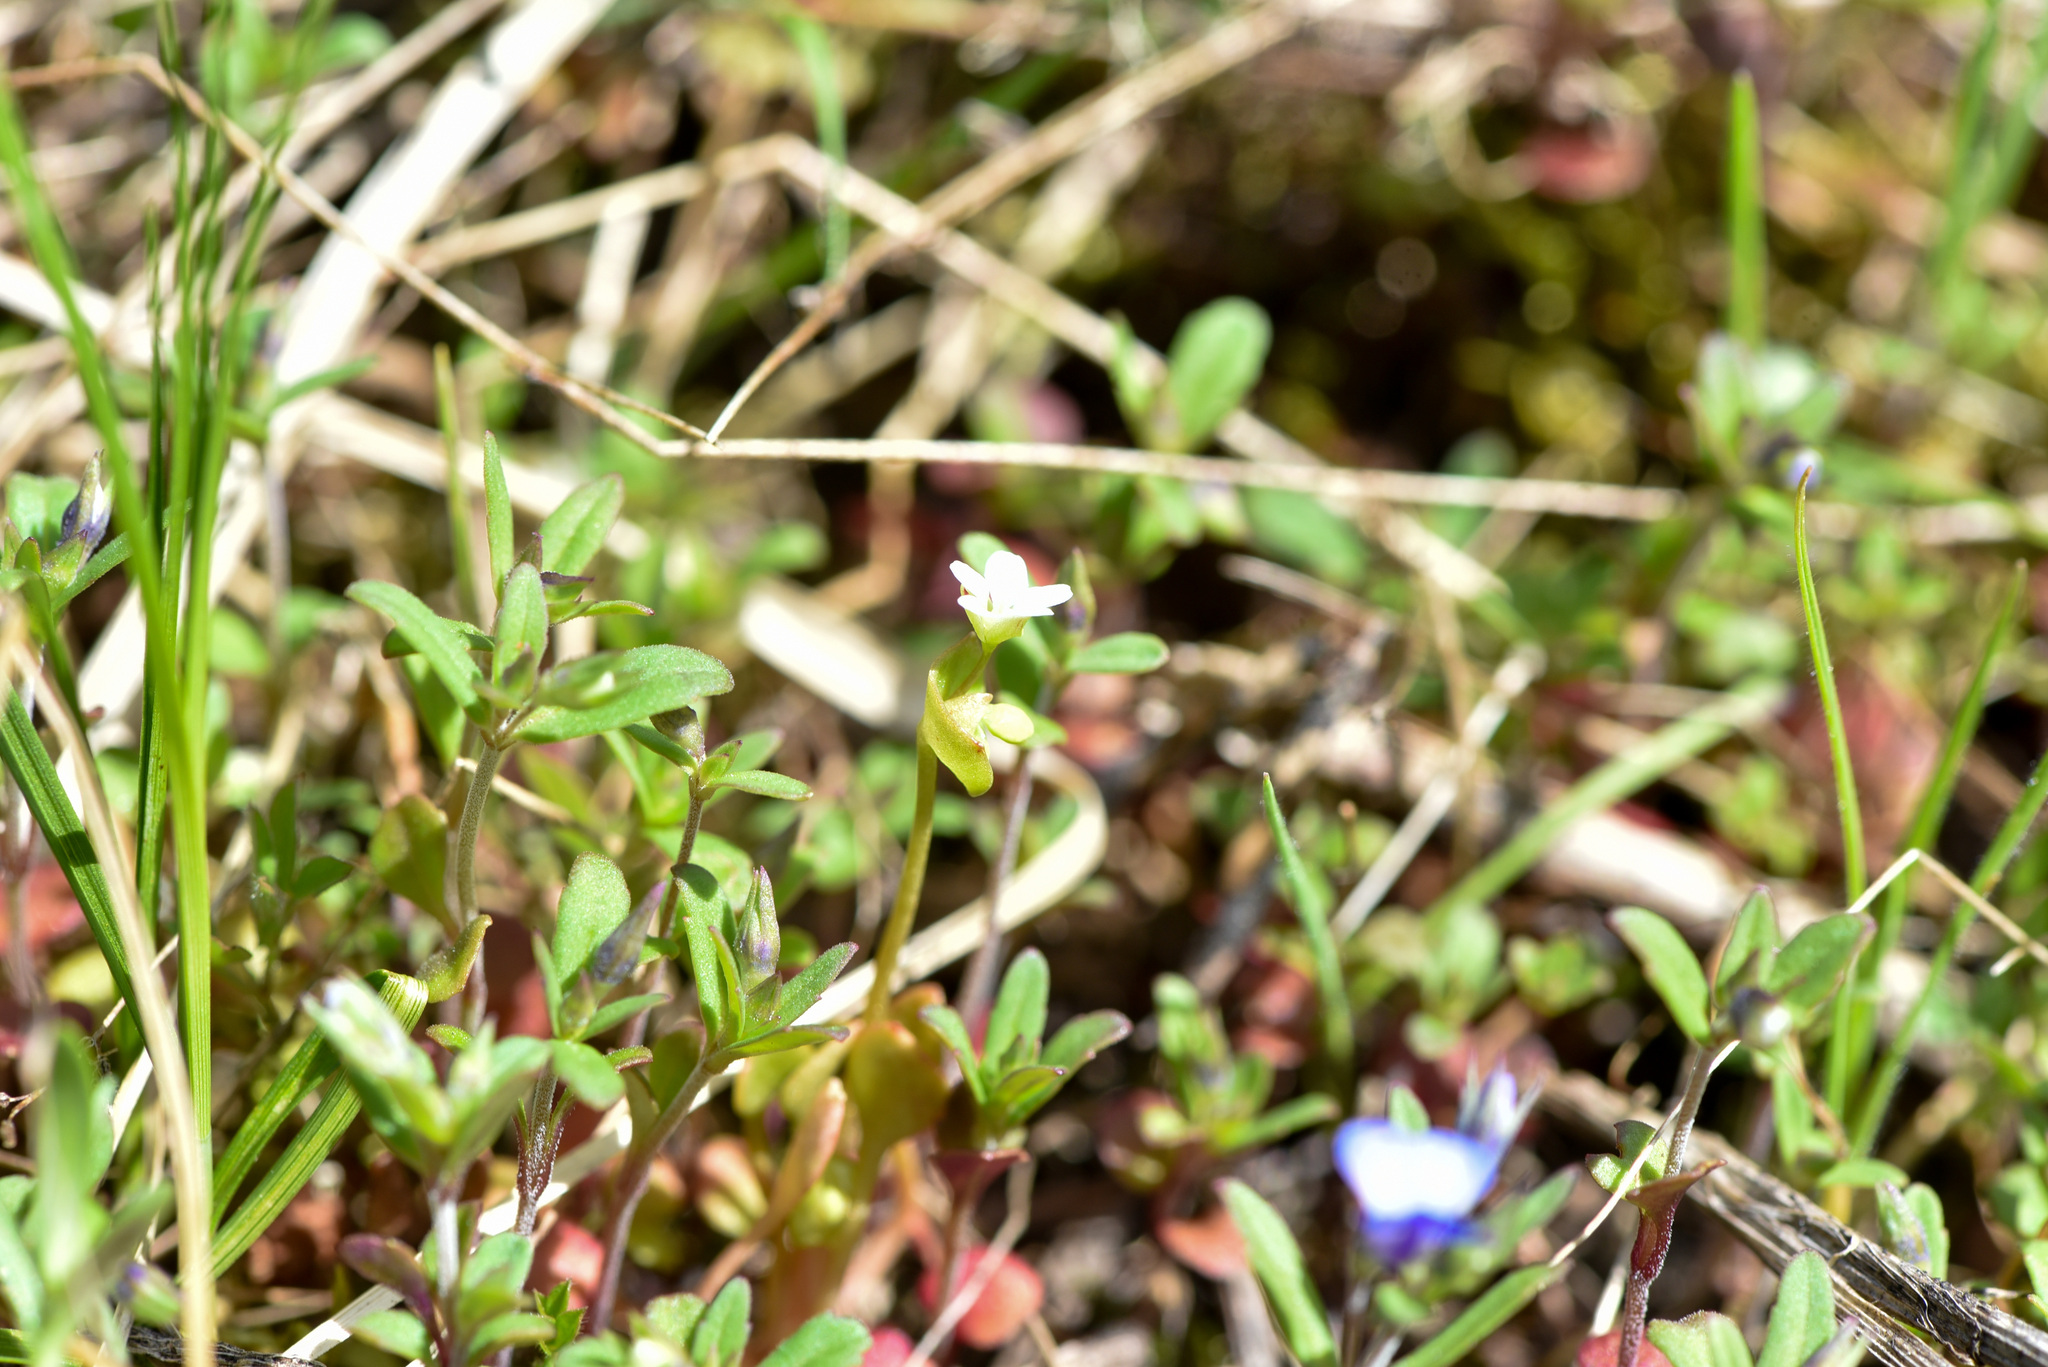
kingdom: Plantae
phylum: Tracheophyta
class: Magnoliopsida
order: Caryophyllales
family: Montiaceae
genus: Claytonia
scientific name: Claytonia perfoliata
